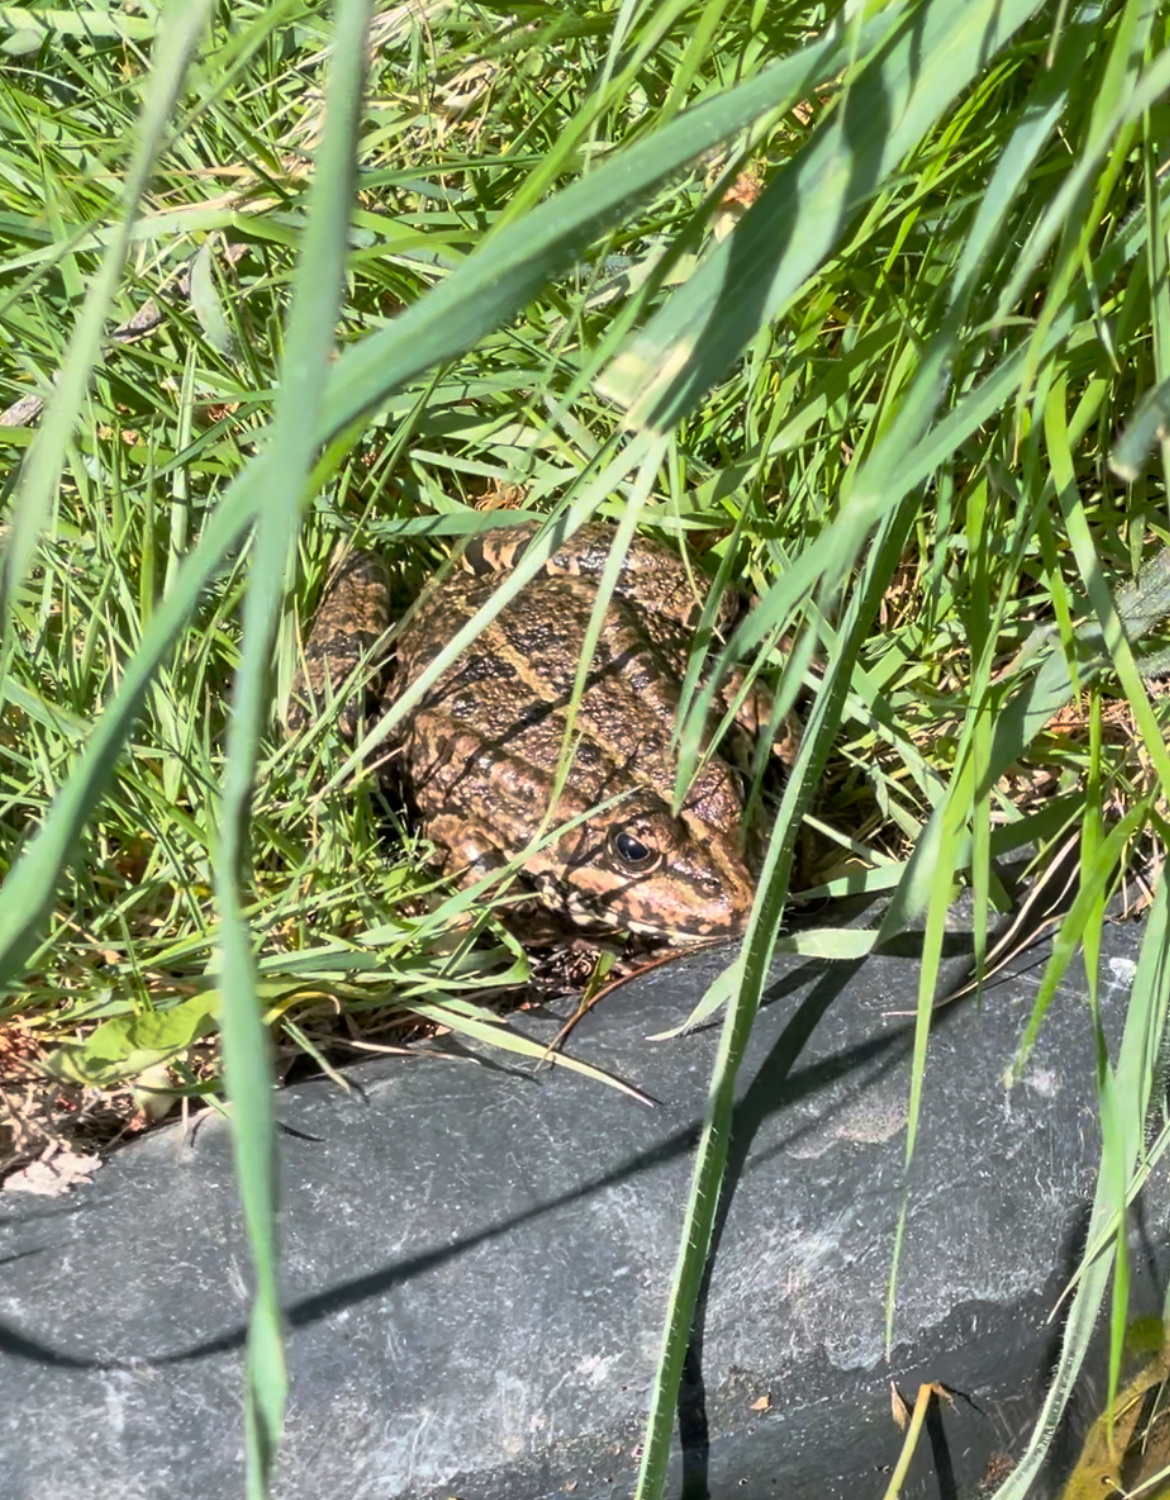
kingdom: Animalia
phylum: Chordata
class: Amphibia
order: Anura
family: Ranidae
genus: Pelophylax
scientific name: Pelophylax perezi
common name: Perez's frog
